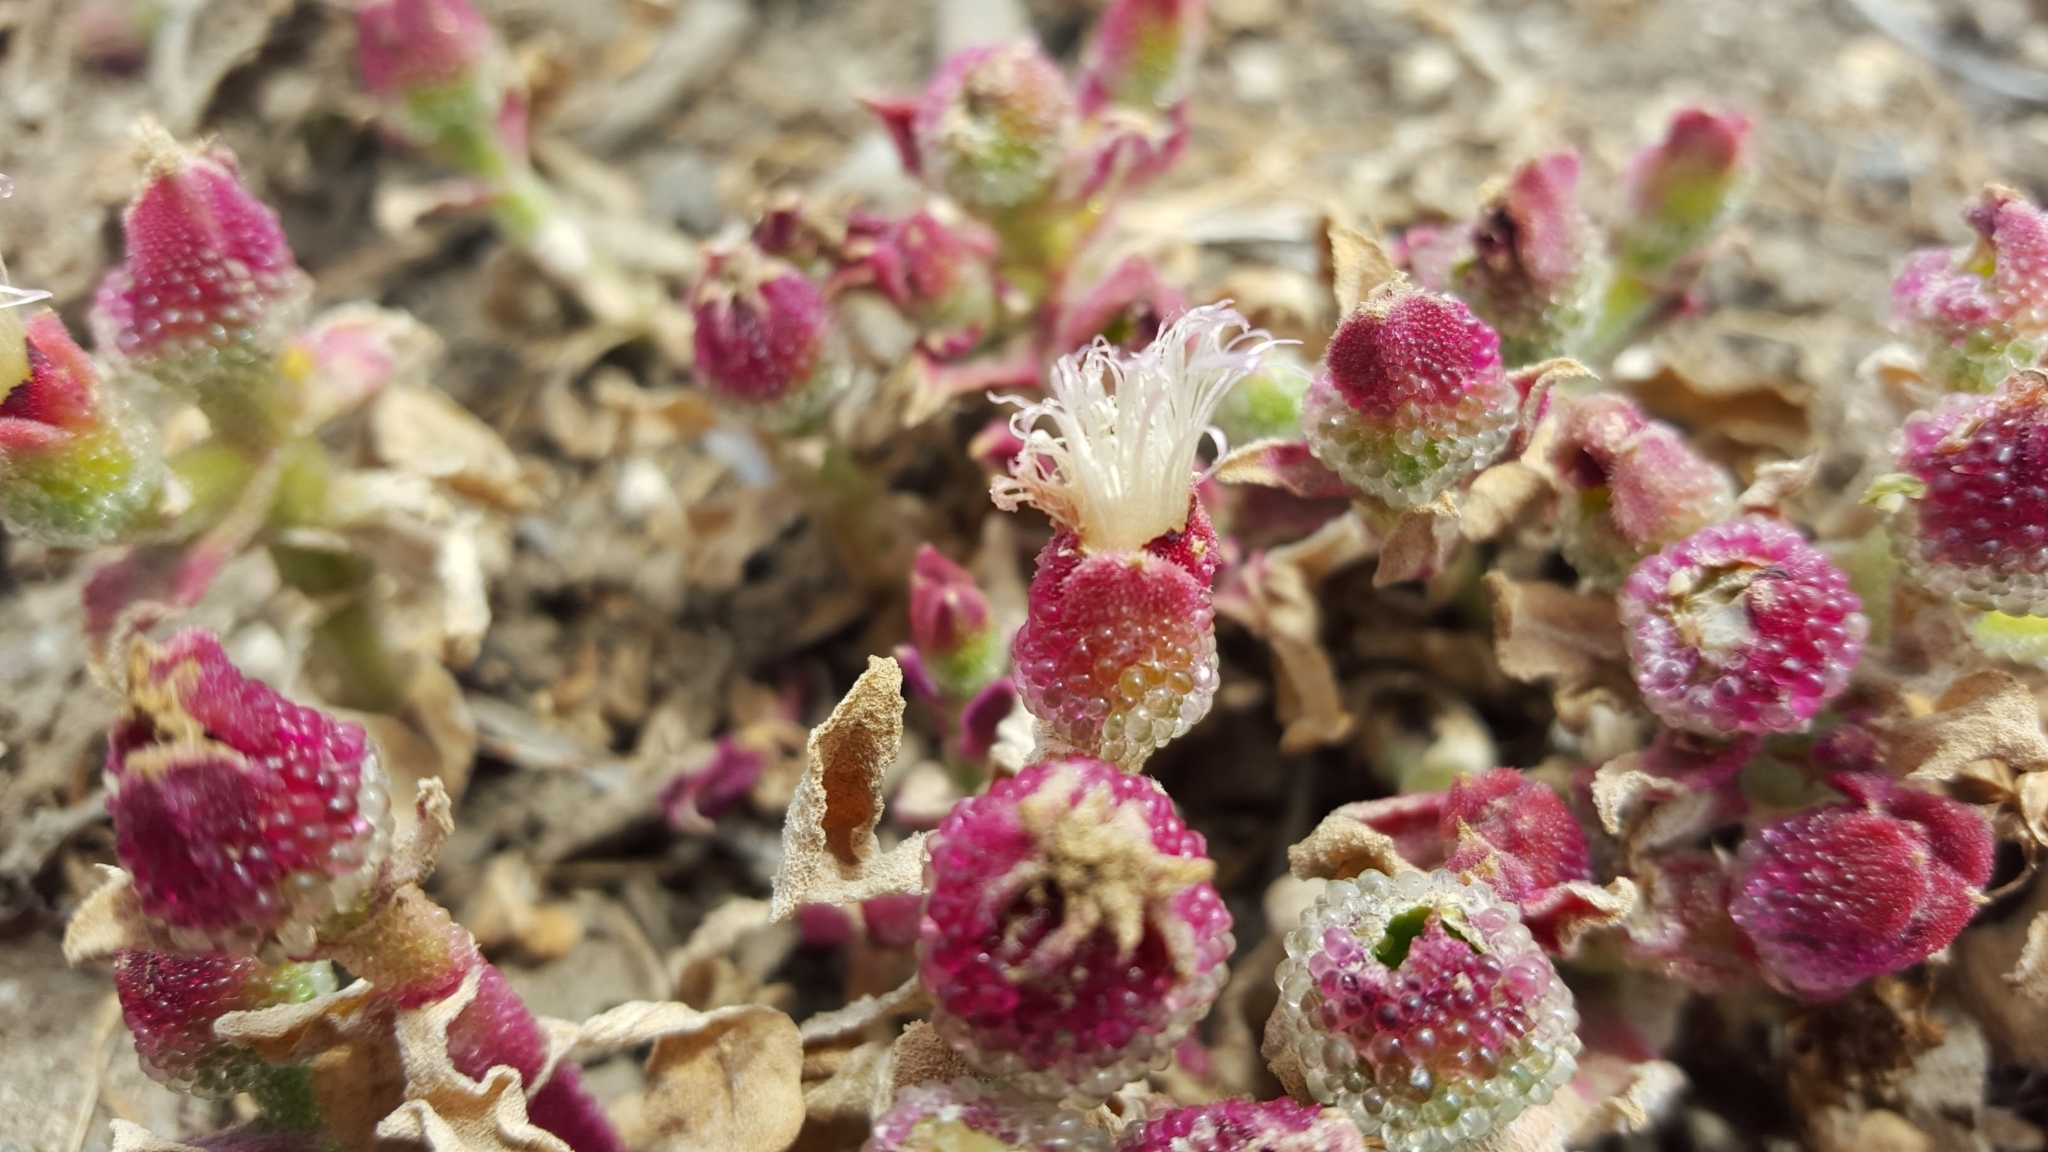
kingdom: Plantae
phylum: Tracheophyta
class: Magnoliopsida
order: Caryophyllales
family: Aizoaceae
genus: Mesembryanthemum
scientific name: Mesembryanthemum crystallinum
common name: Common iceplant
